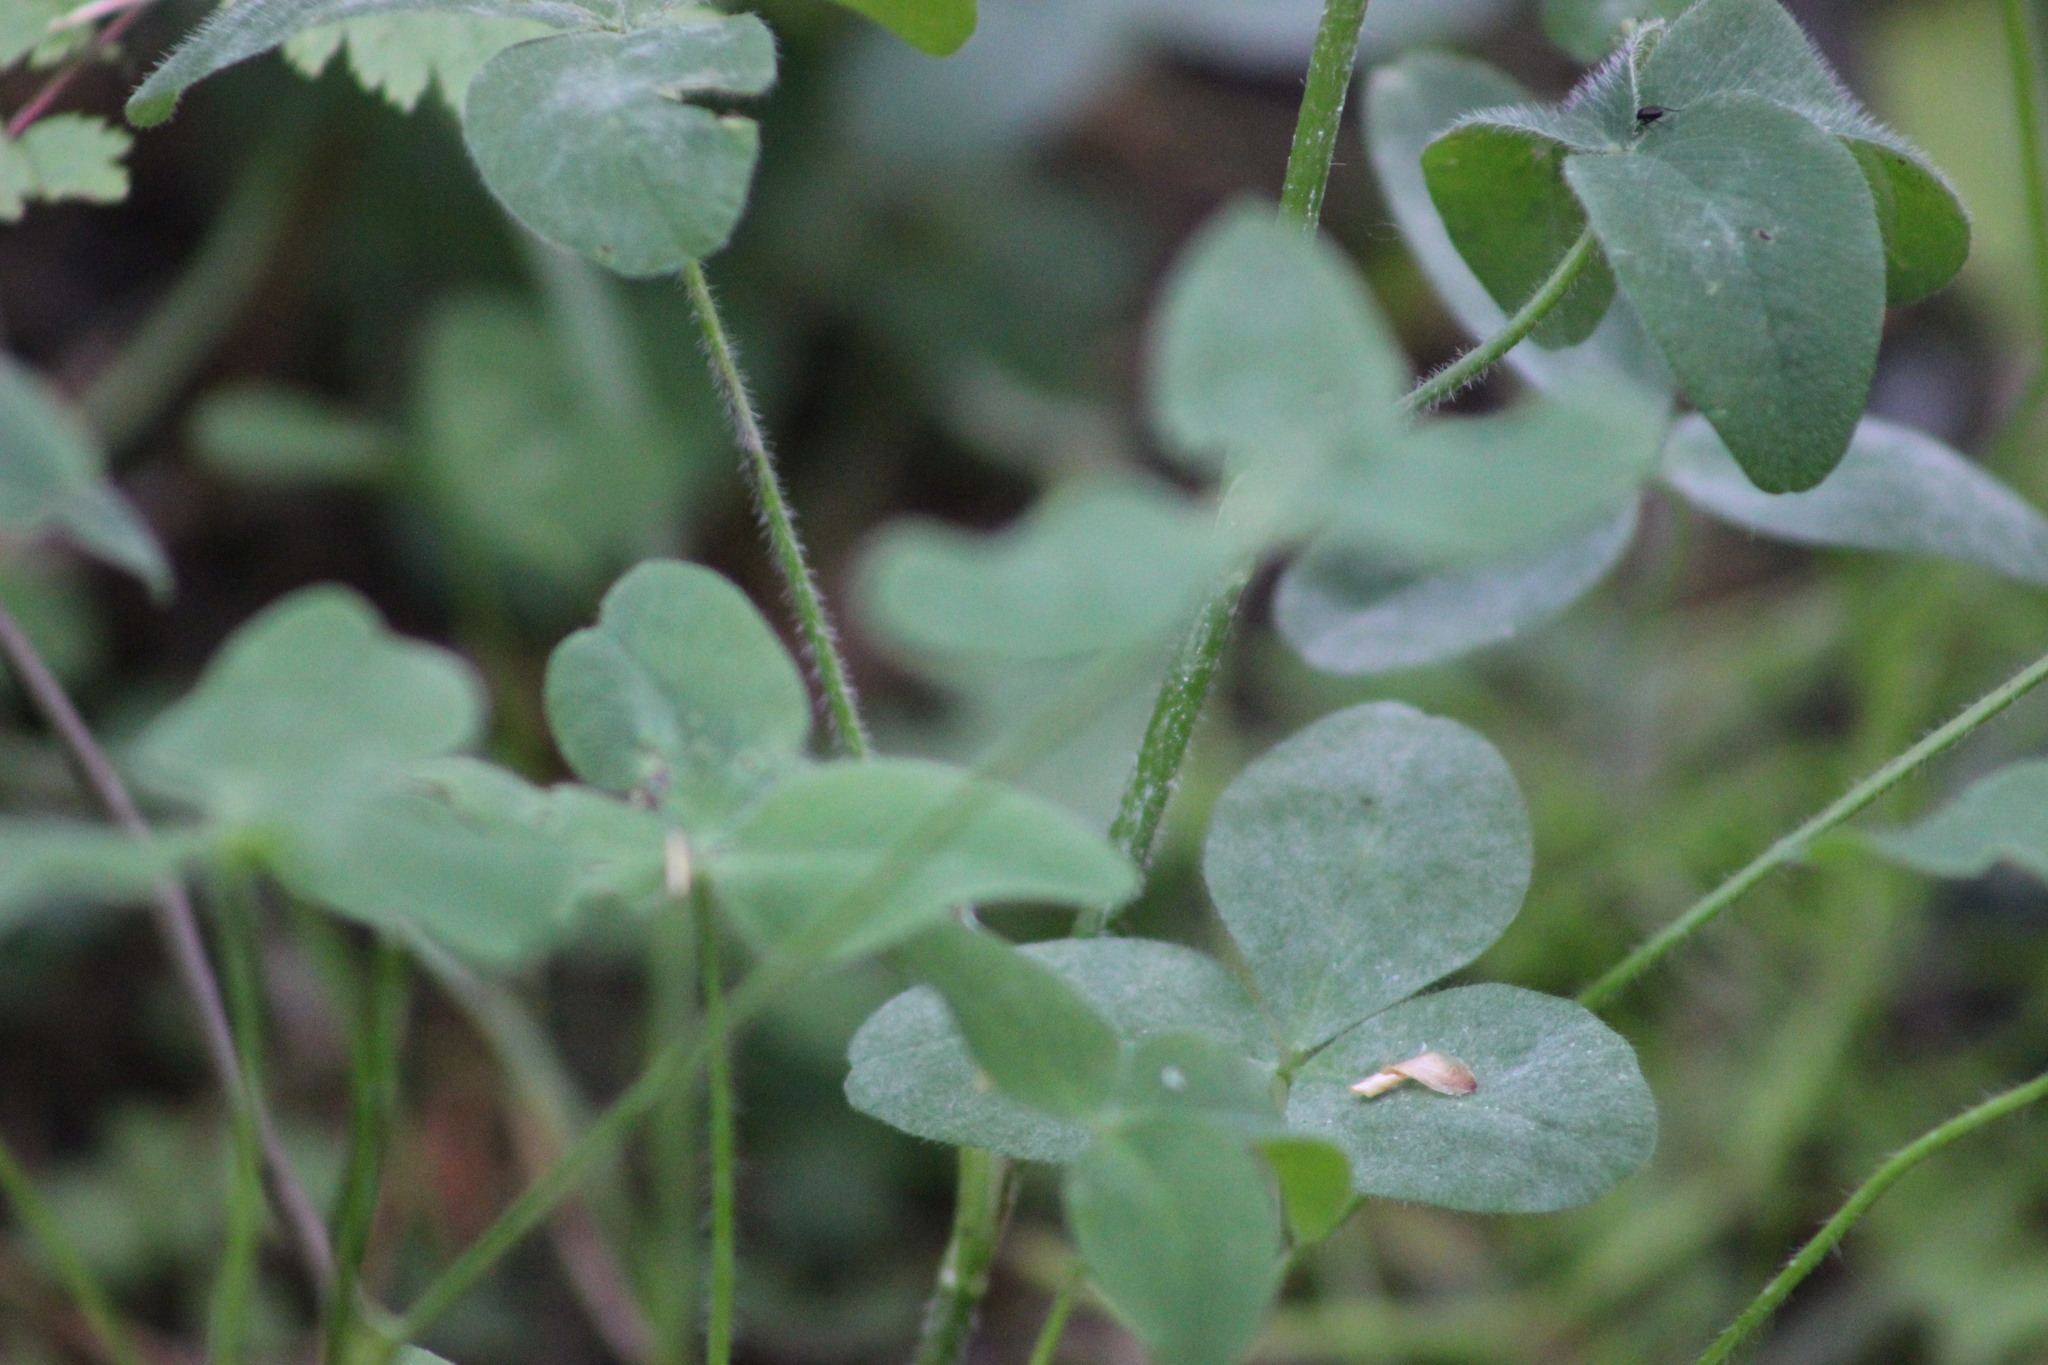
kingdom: Plantae
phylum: Tracheophyta
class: Magnoliopsida
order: Fabales
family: Fabaceae
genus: Trifolium
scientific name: Trifolium pratense
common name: Red clover
